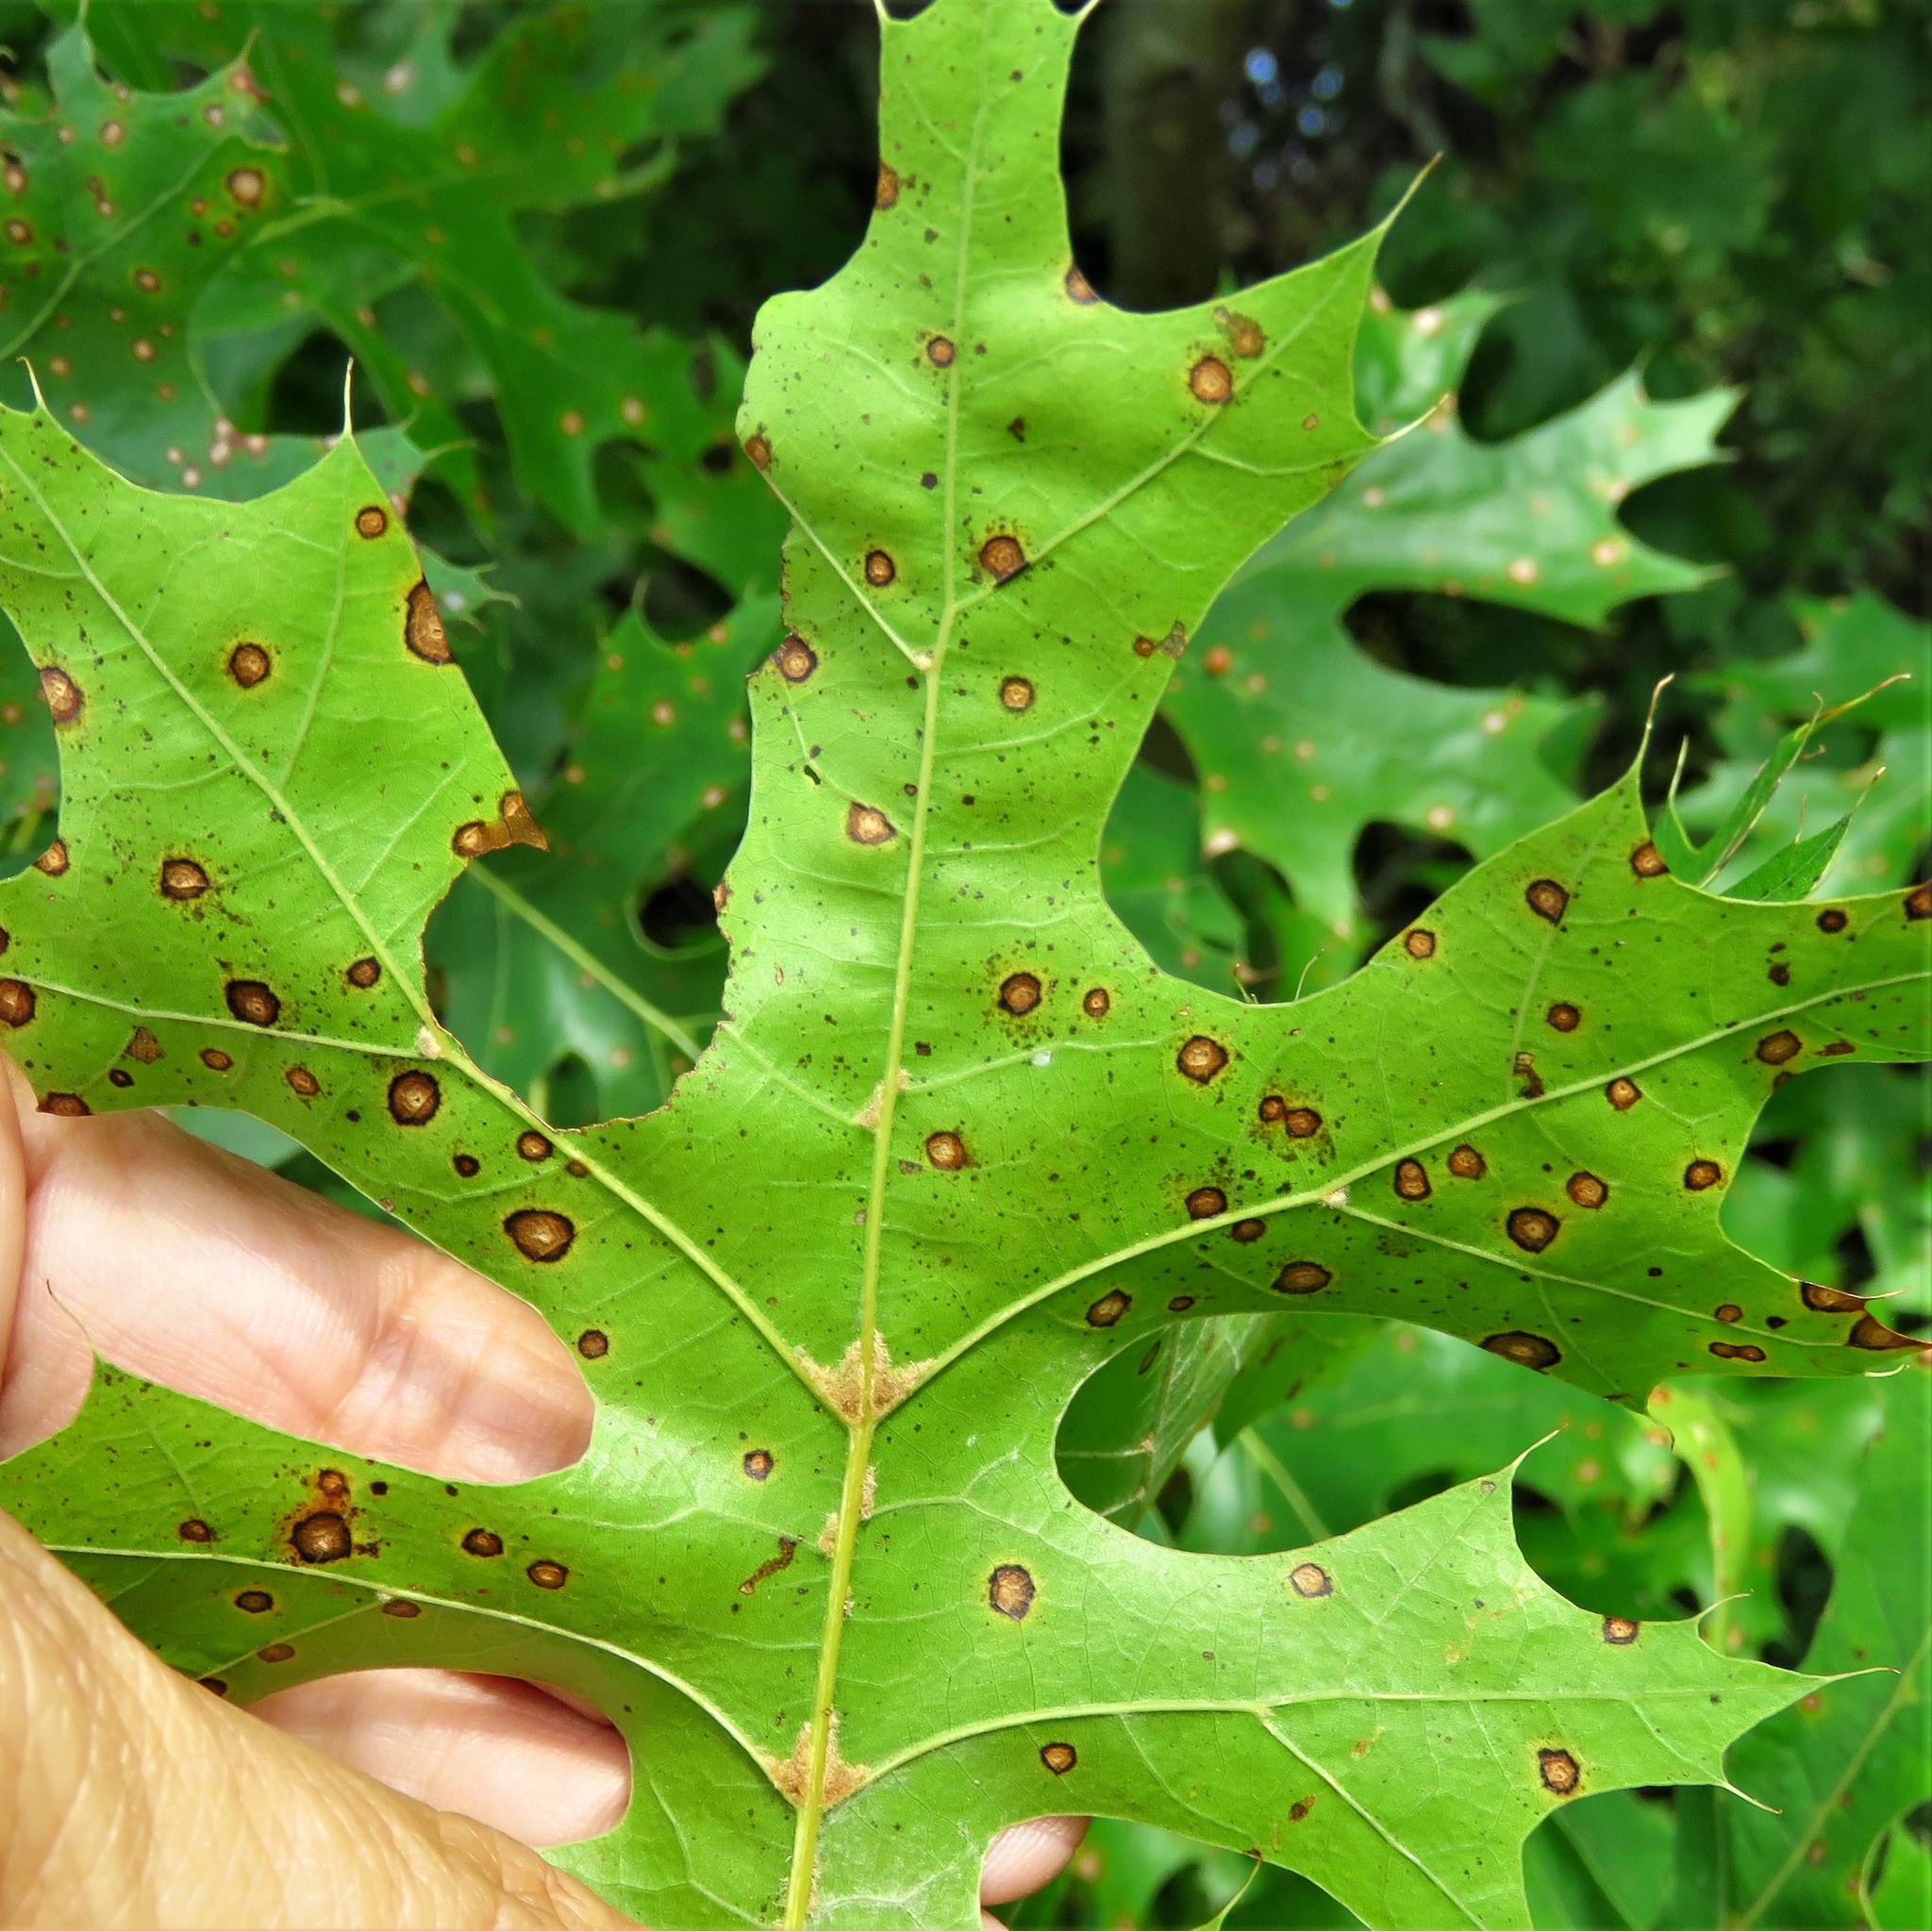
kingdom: Fungi
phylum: Ascomycota
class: Sordariomycetes
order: Diaporthales
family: Melanconidaceae
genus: Dicarpella
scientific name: Dicarpella dryina
